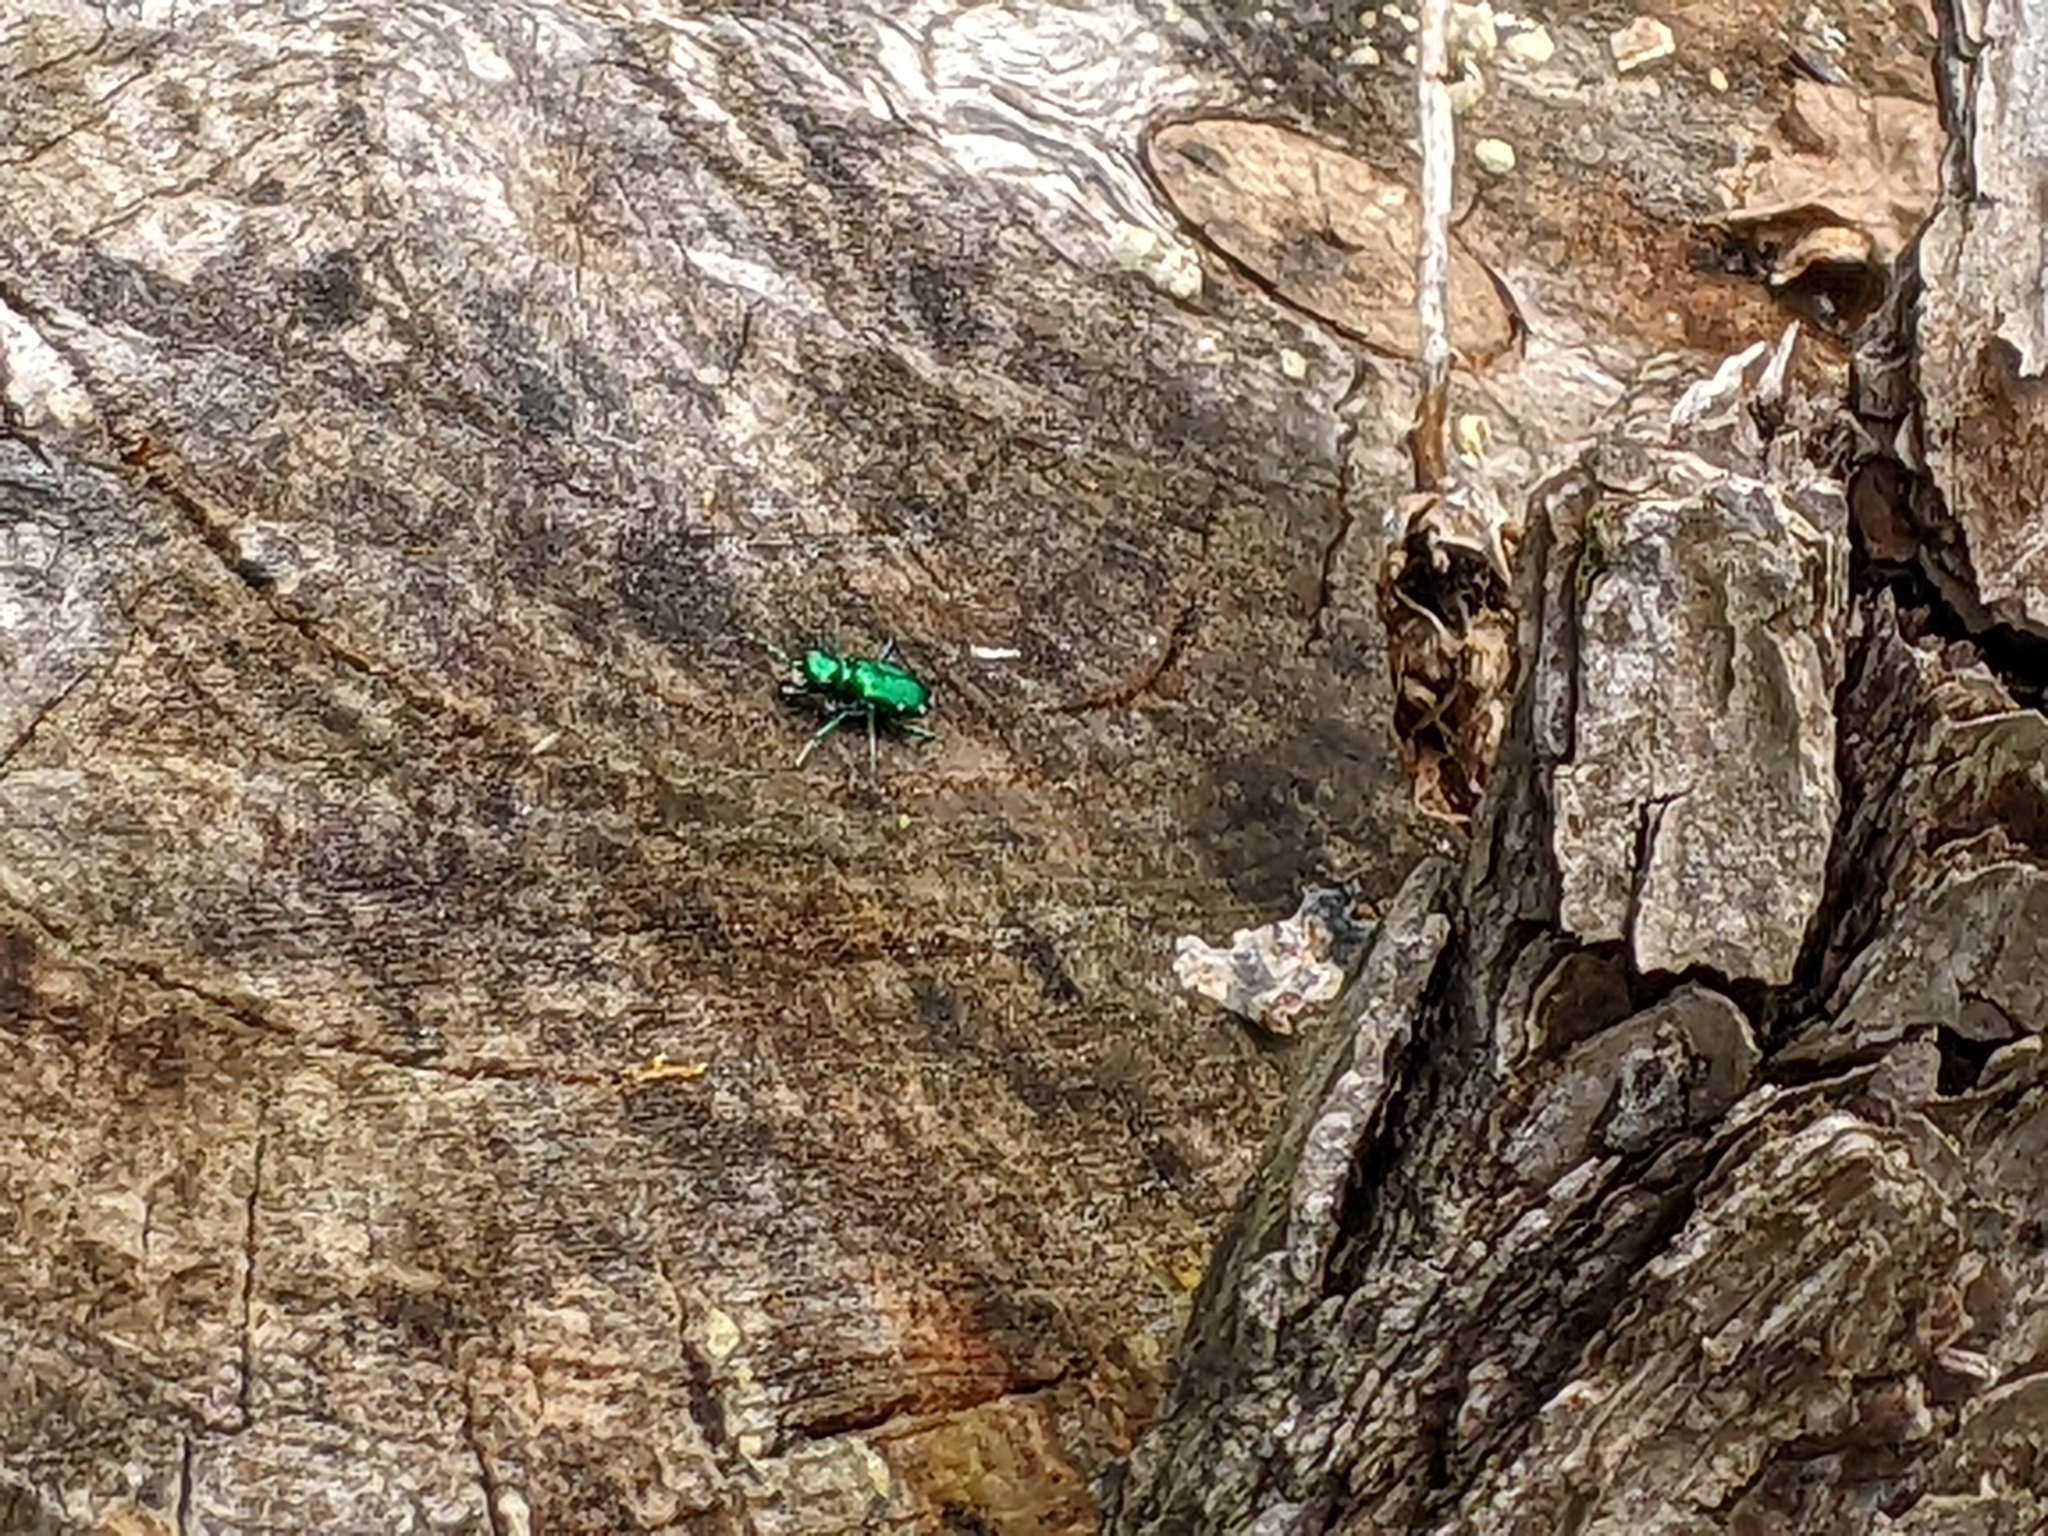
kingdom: Animalia
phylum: Arthropoda
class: Insecta
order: Coleoptera
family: Carabidae
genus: Cicindela
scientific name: Cicindela sexguttata
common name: Six-spotted tiger beetle
